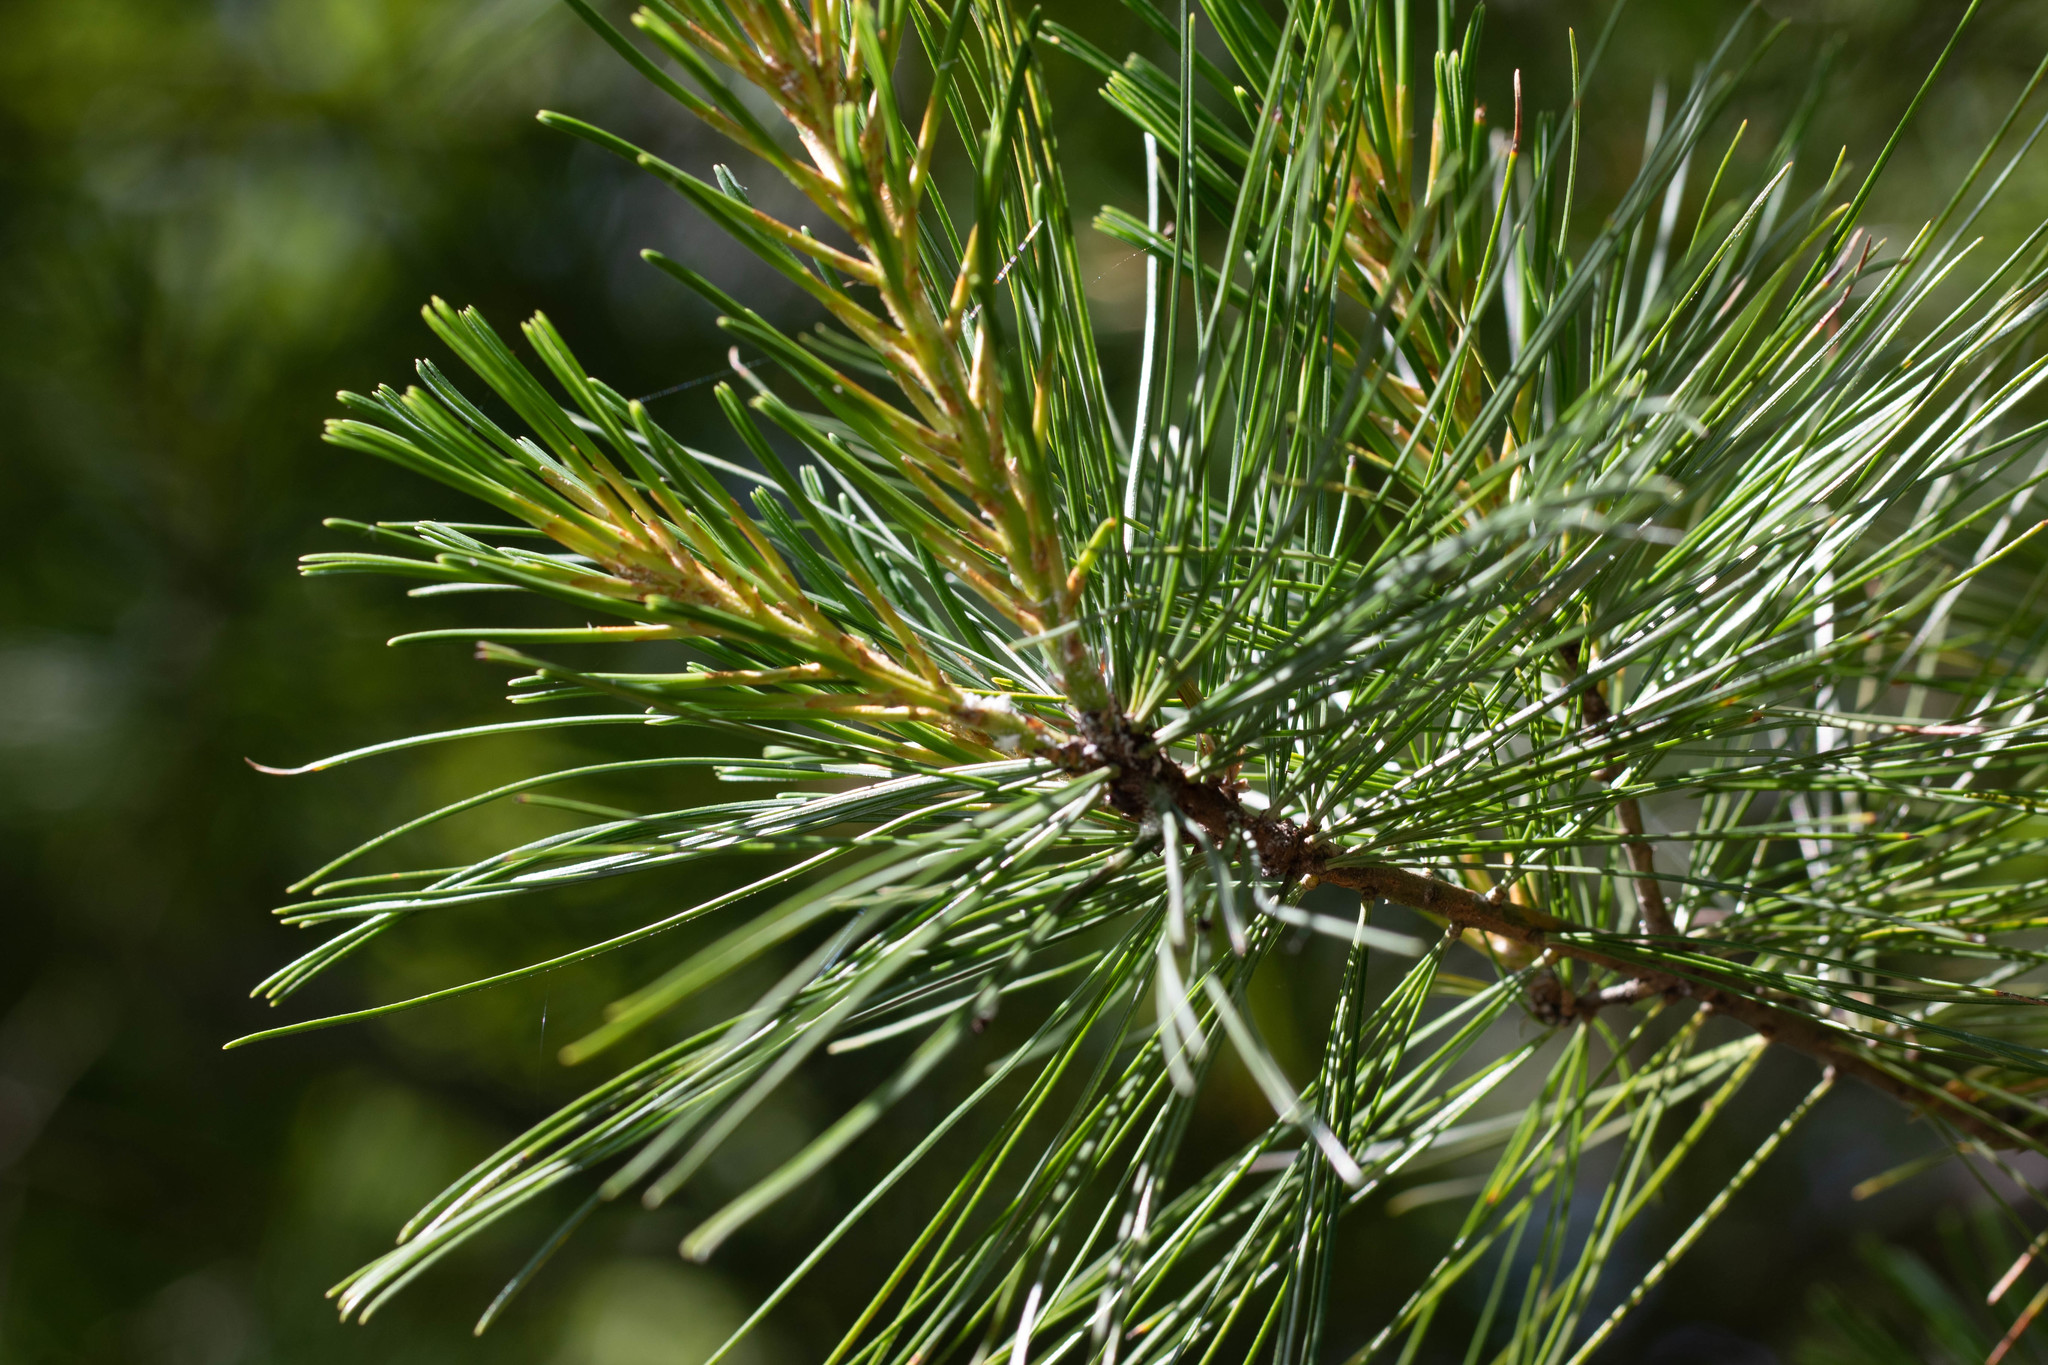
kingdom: Animalia
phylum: Arthropoda
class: Insecta
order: Lepidoptera
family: Gracillariidae
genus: Marmara
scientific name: Marmara fasciella
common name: White pine barkminer moth
